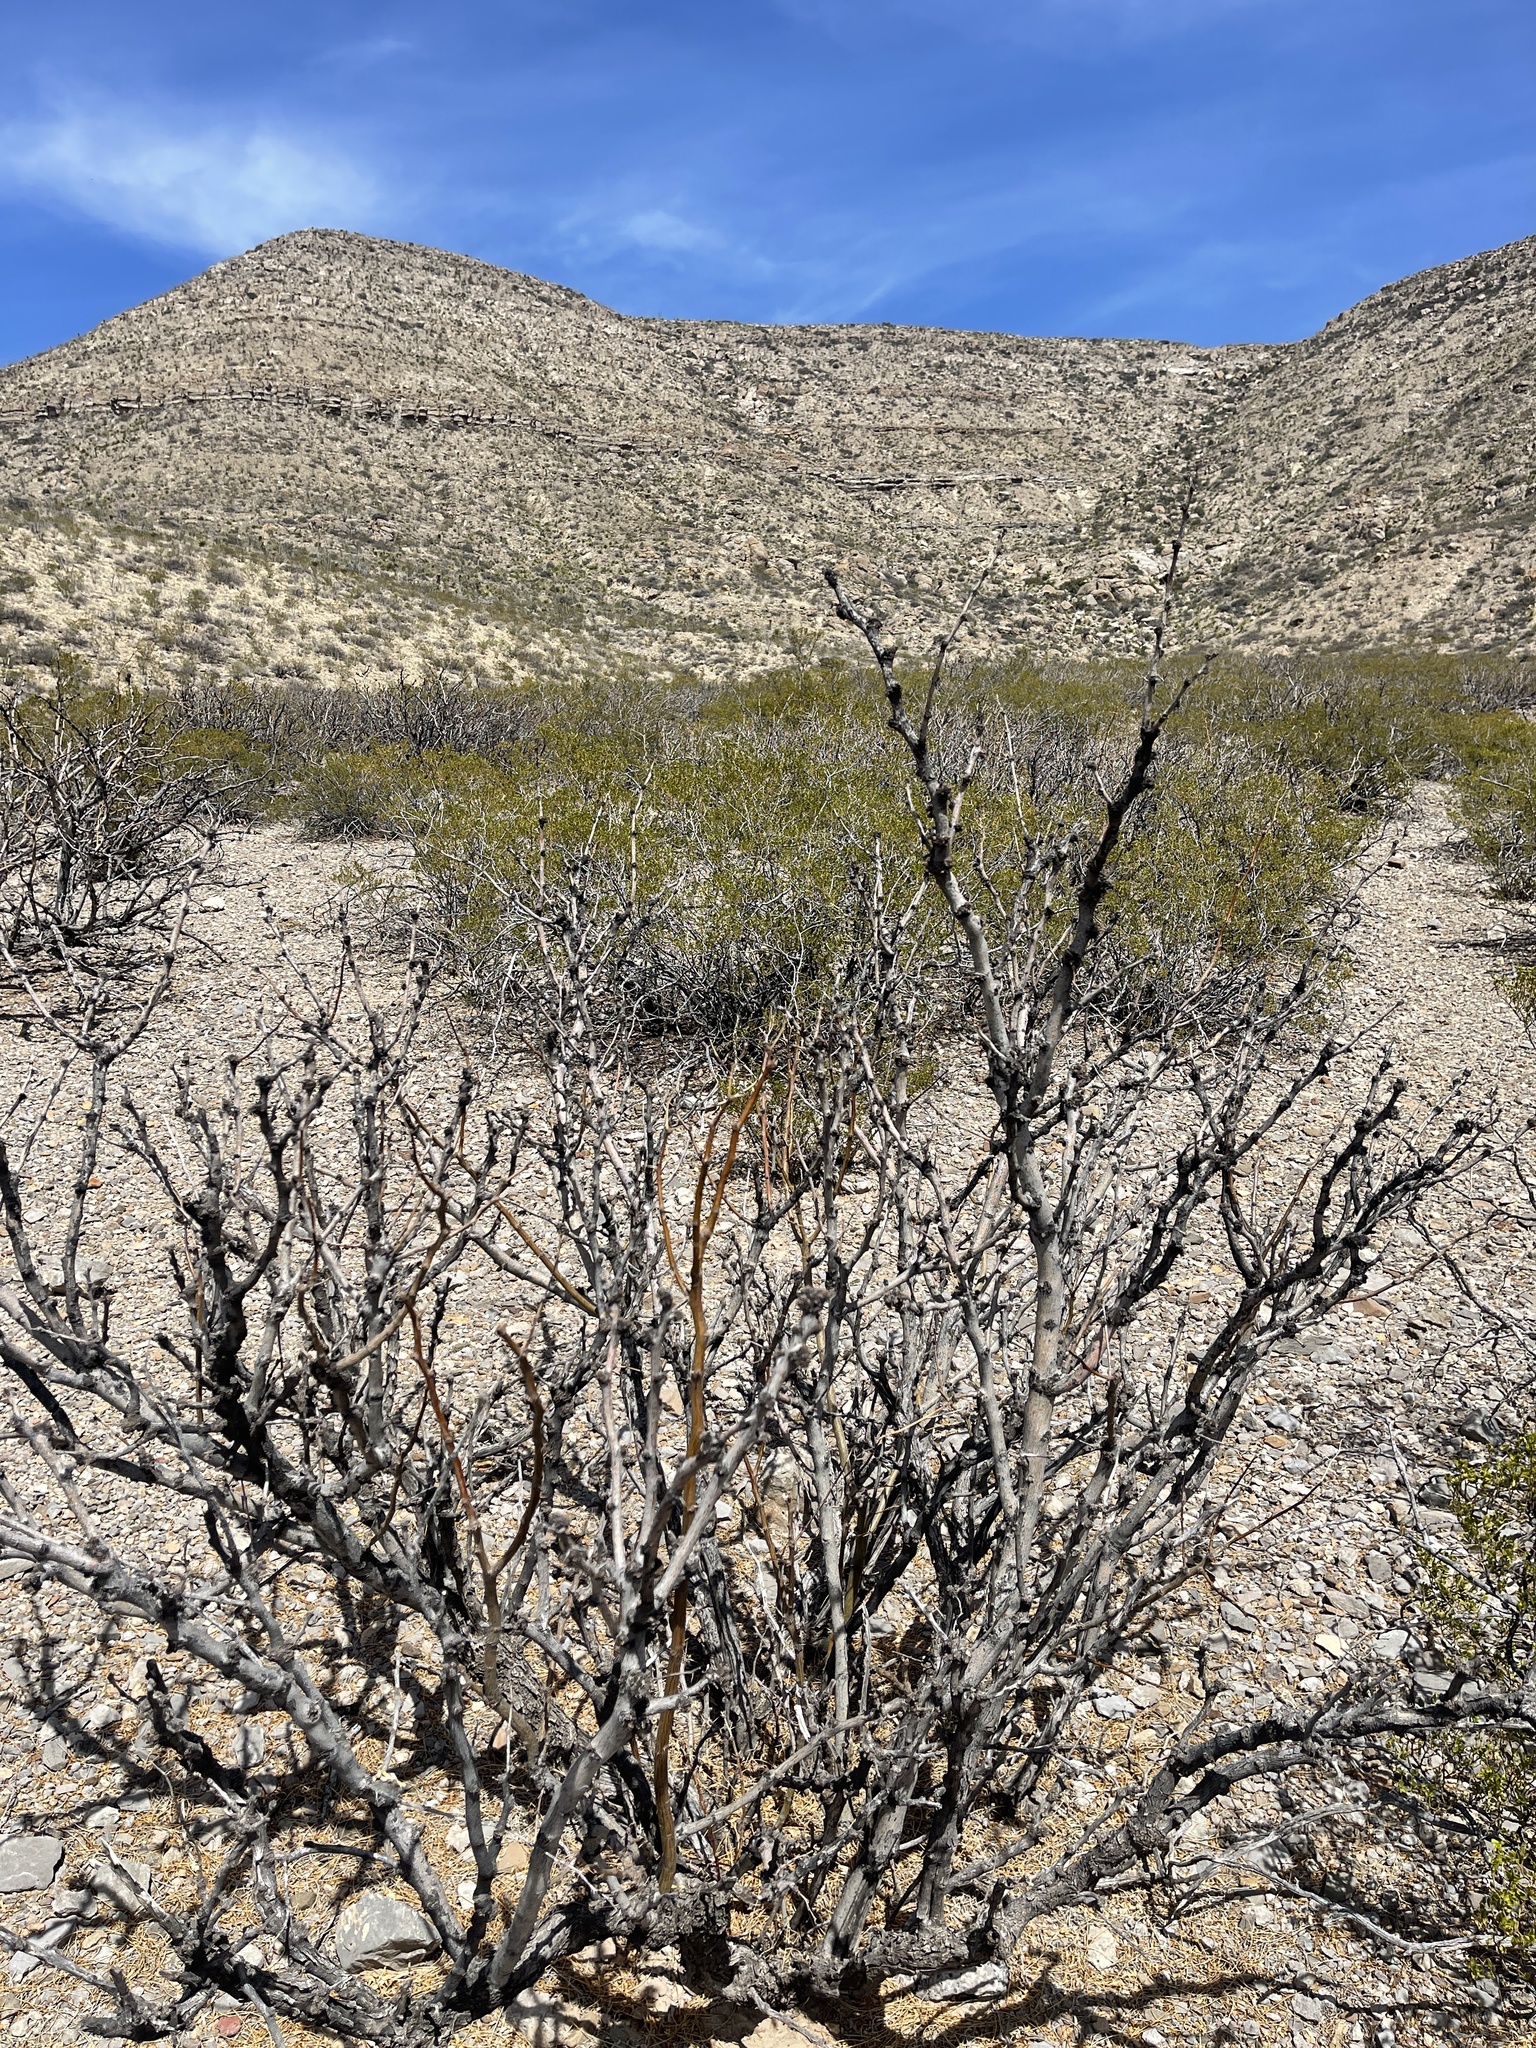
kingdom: Plantae
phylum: Tracheophyta
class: Magnoliopsida
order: Fabales
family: Fabaceae
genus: Prosopis
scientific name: Prosopis glandulosa
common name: Honey mesquite
